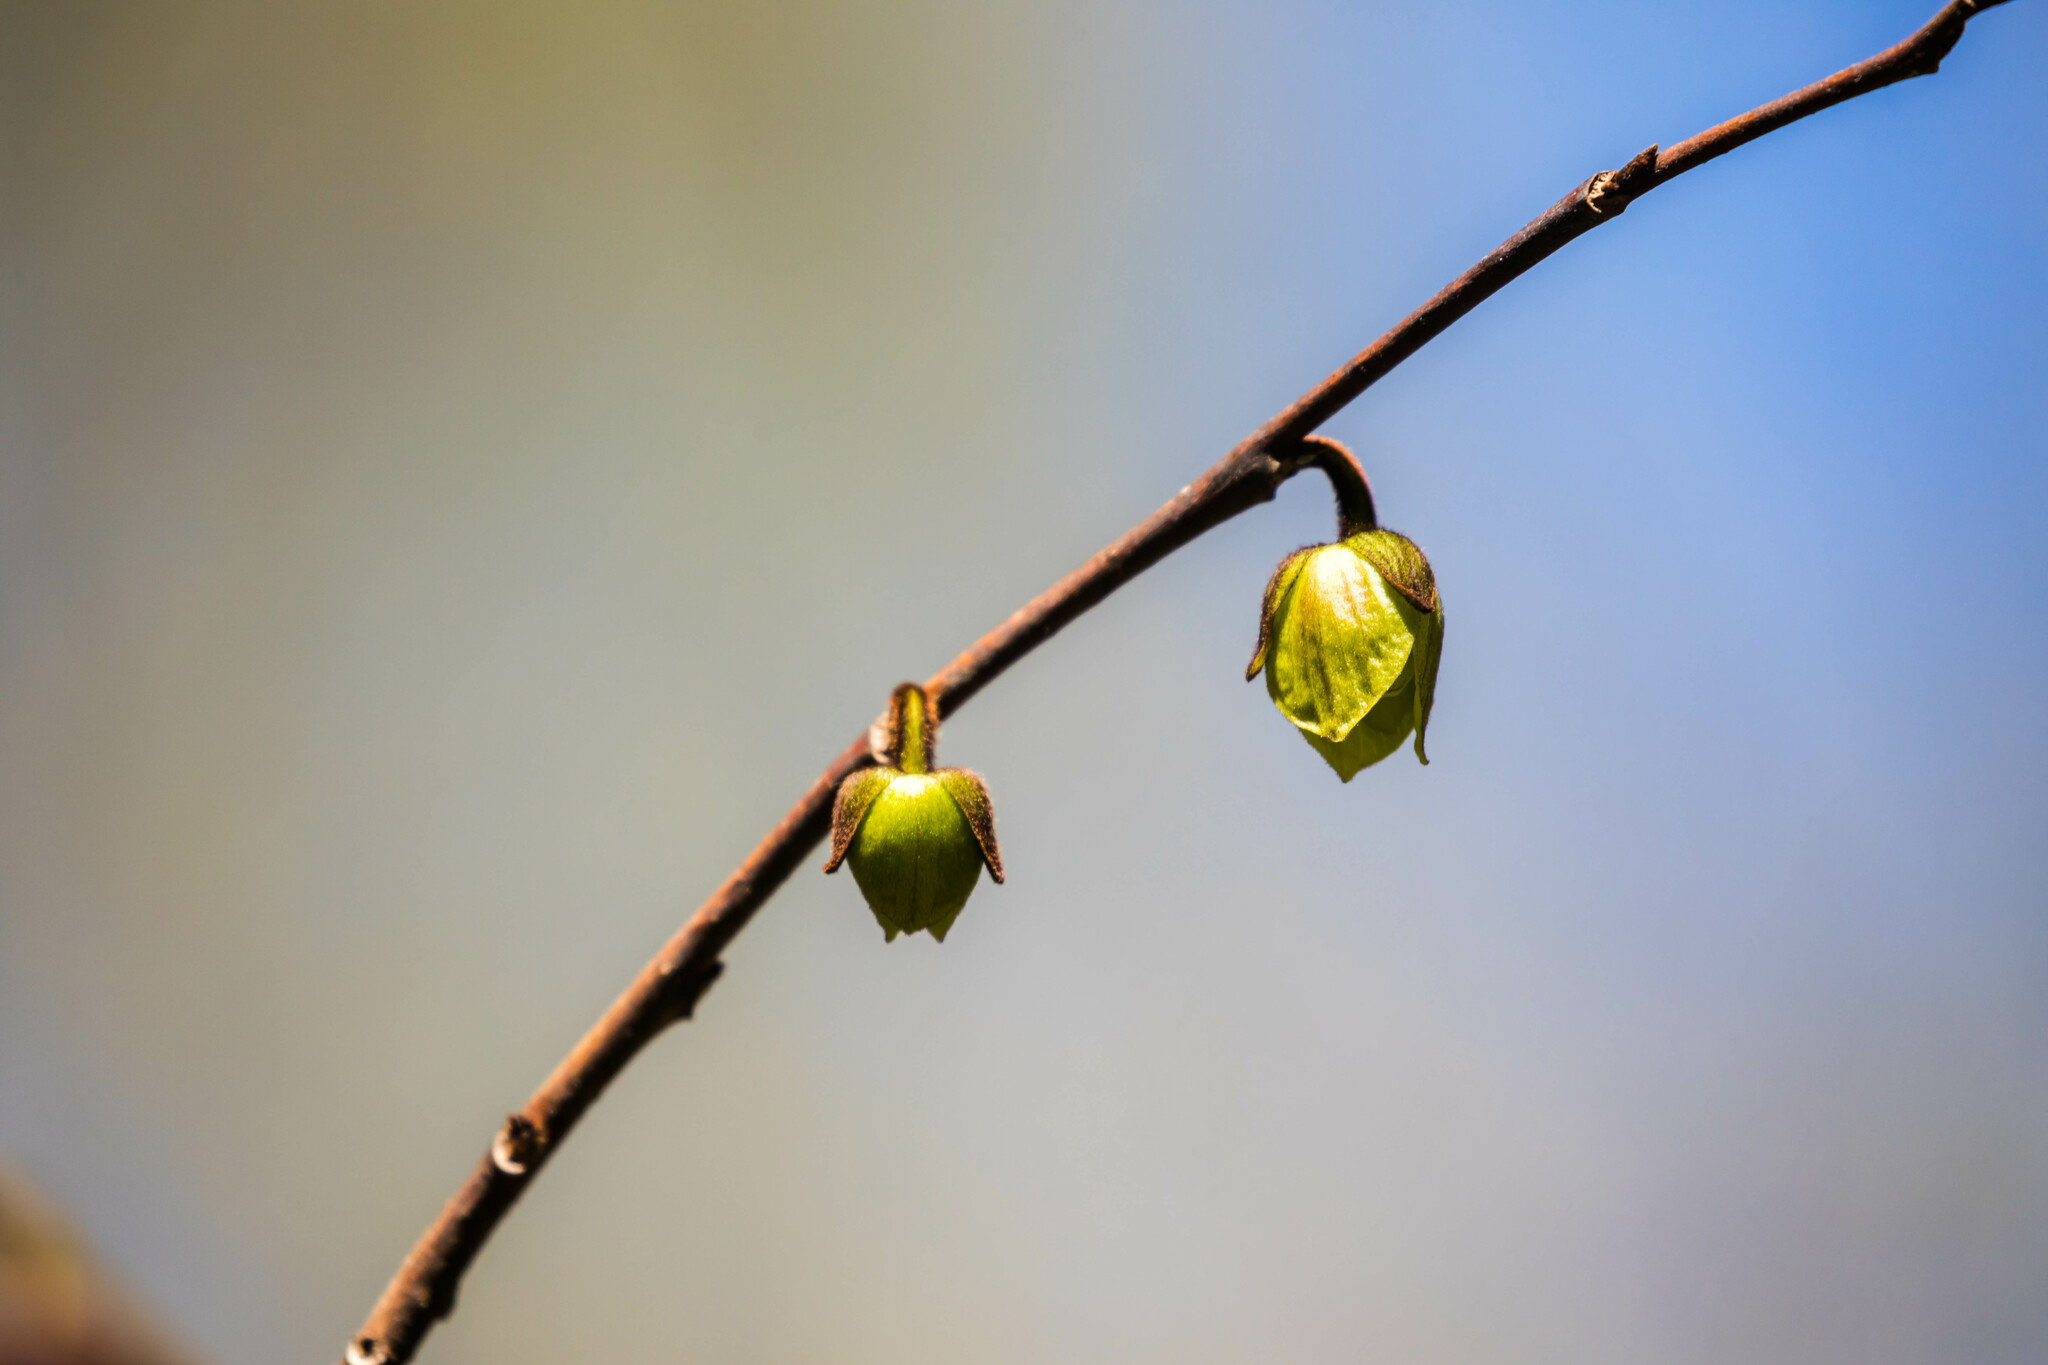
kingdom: Plantae
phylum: Tracheophyta
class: Magnoliopsida
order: Magnoliales
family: Annonaceae
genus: Asimina
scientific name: Asimina triloba
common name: Dog-banana
